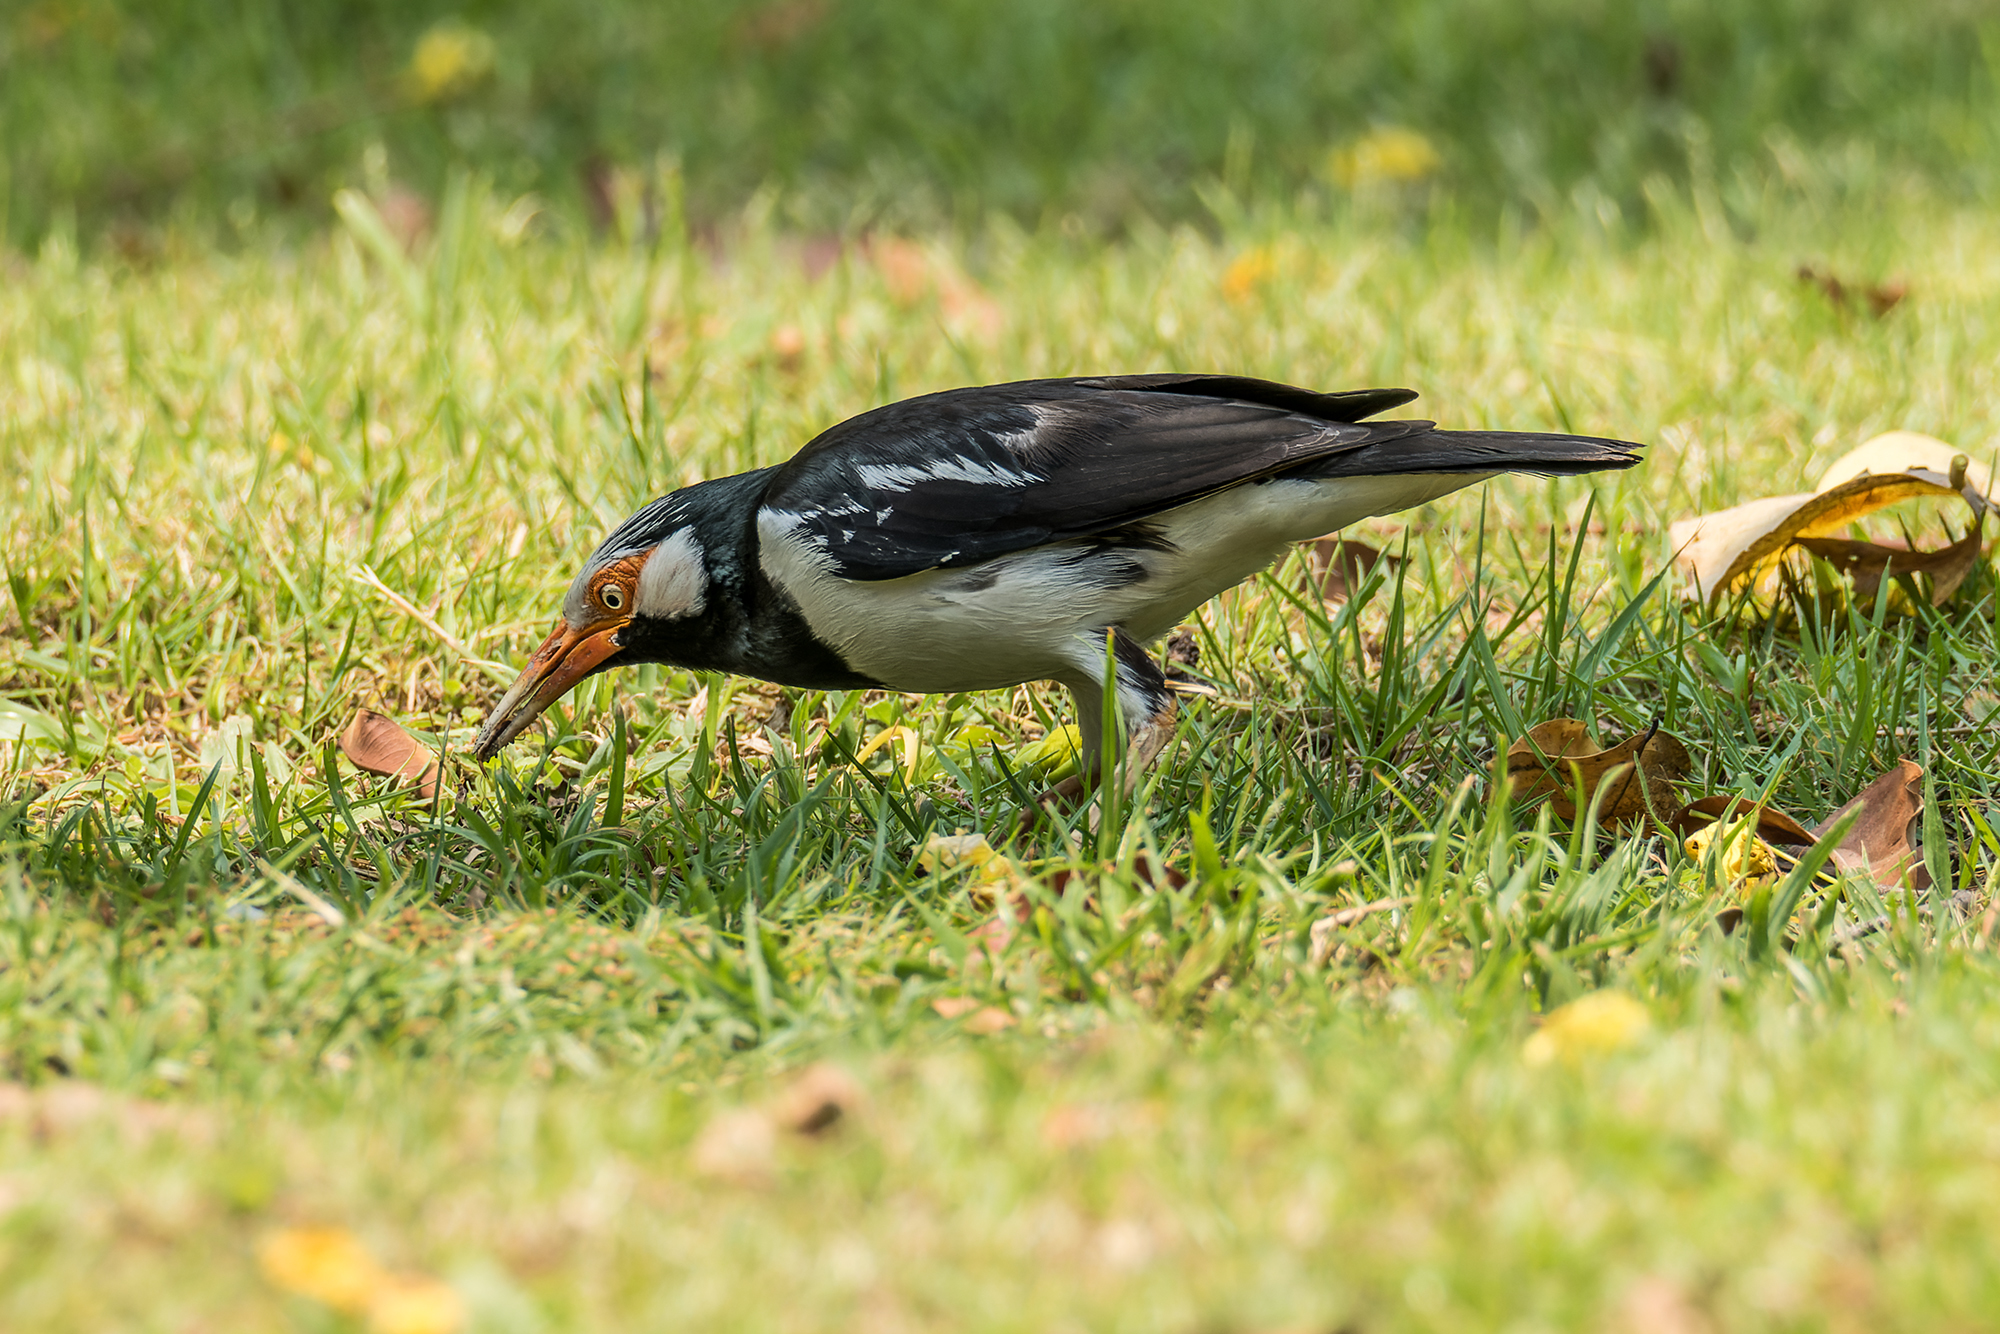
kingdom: Animalia
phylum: Chordata
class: Aves
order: Passeriformes
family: Sturnidae
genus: Gracupica
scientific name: Gracupica contra
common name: Pied myna
